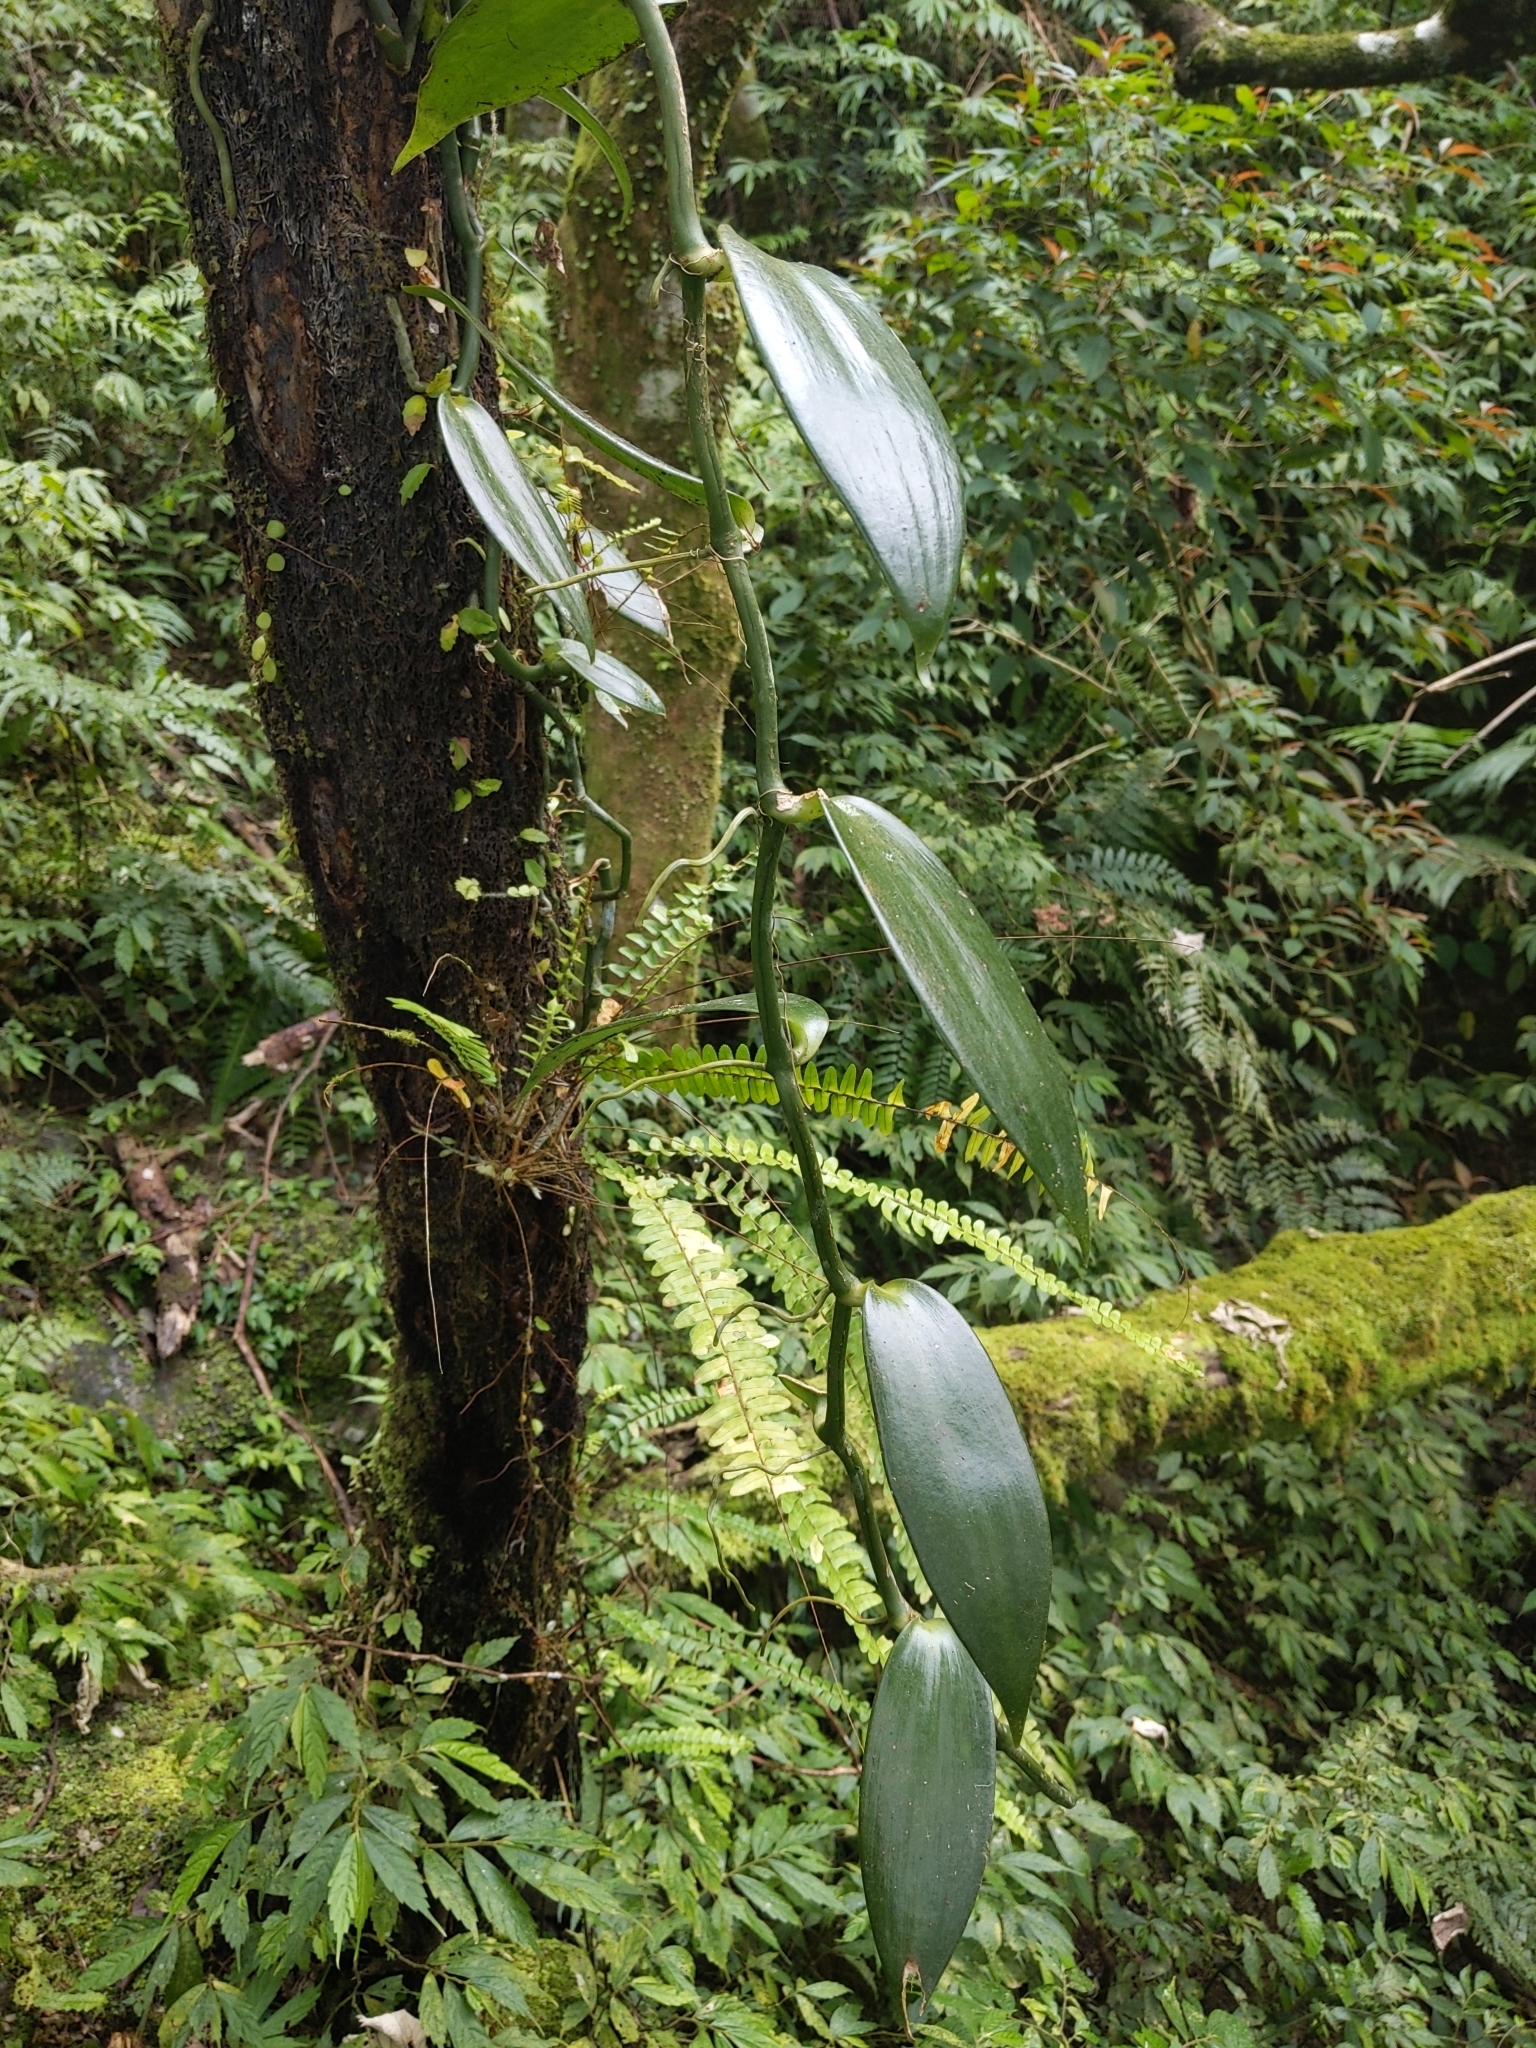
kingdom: Plantae
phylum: Tracheophyta
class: Liliopsida
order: Asparagales
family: Orchidaceae
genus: Vanilla
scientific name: Vanilla somae
